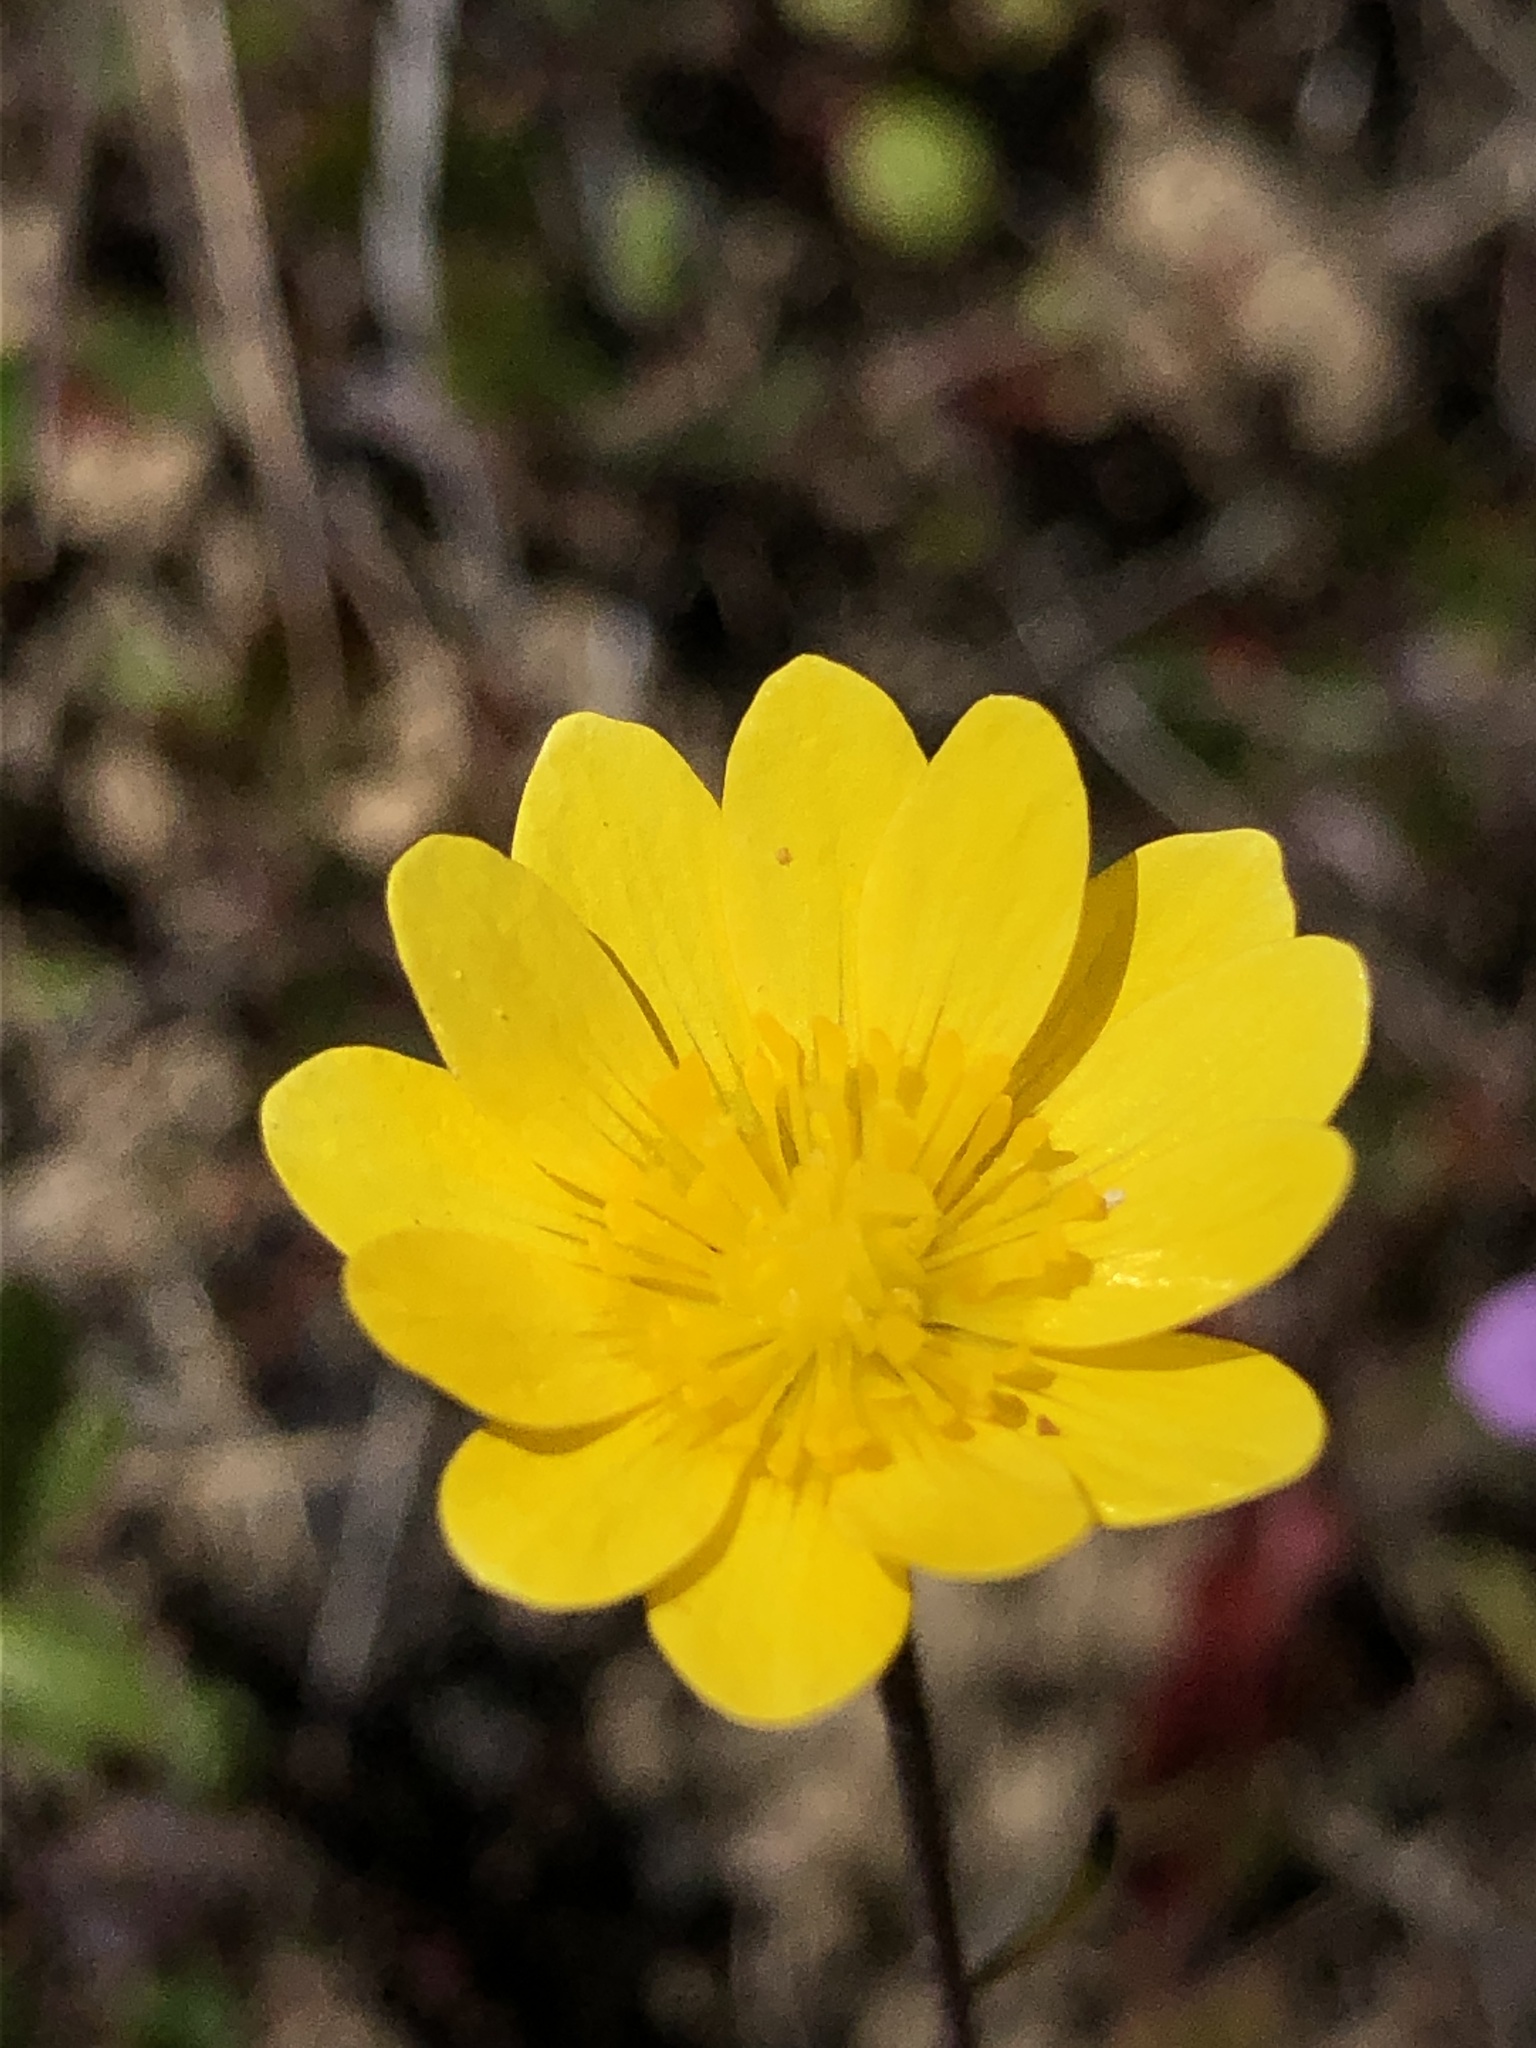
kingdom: Plantae
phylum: Tracheophyta
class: Magnoliopsida
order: Ranunculales
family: Ranunculaceae
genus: Ranunculus
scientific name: Ranunculus californicus
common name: California buttercup
